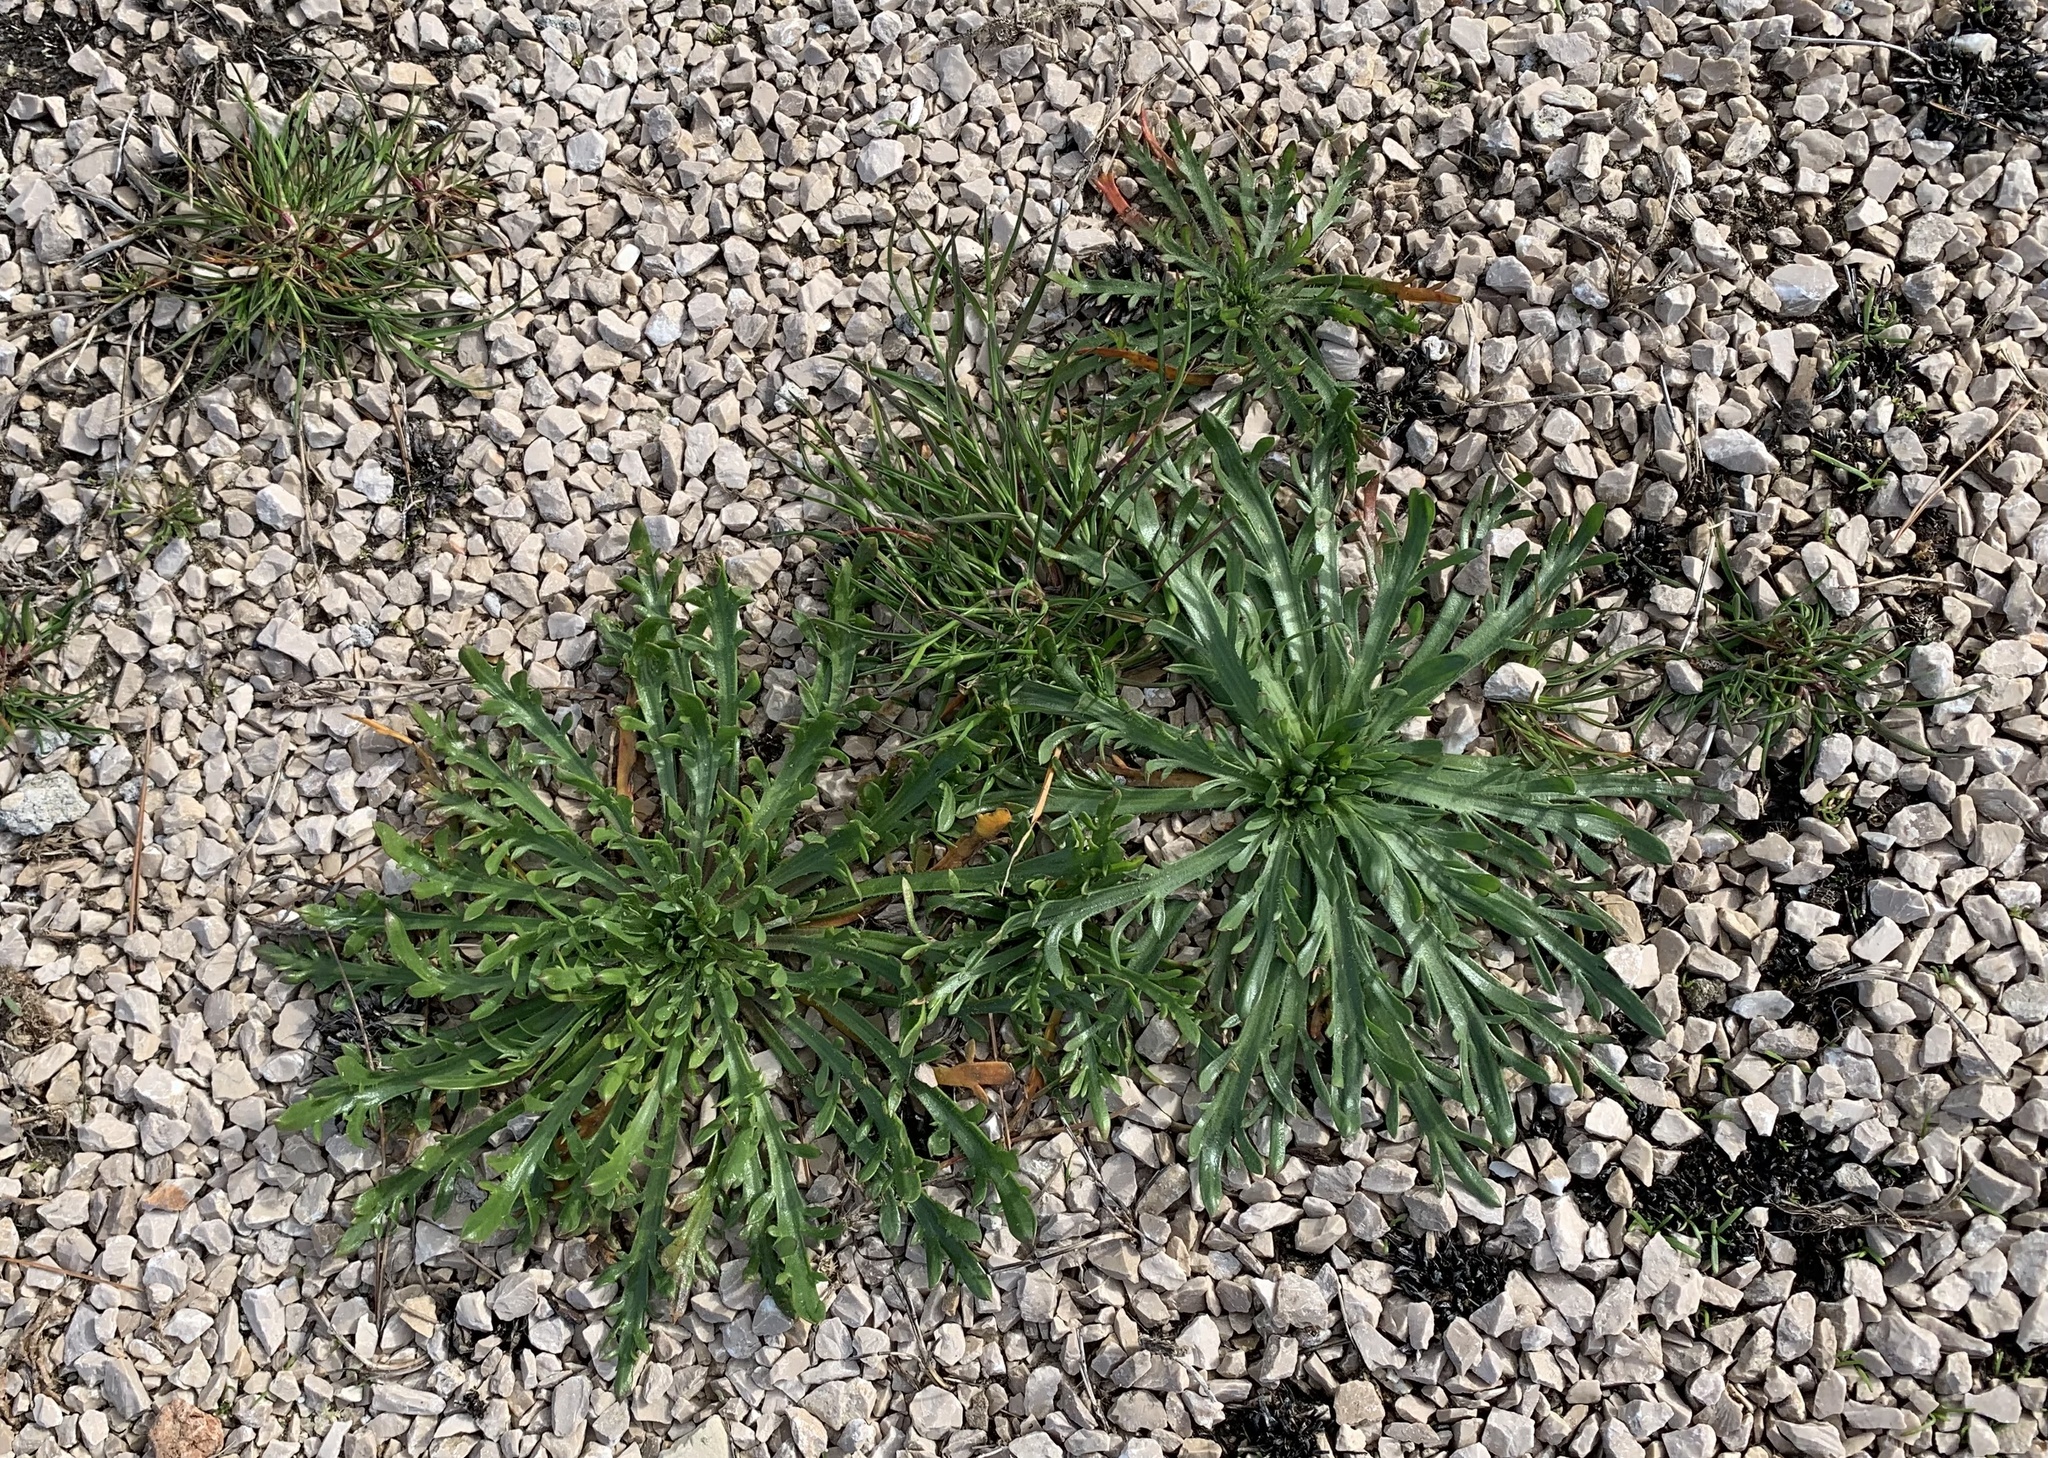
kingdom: Plantae
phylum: Tracheophyta
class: Magnoliopsida
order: Lamiales
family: Plantaginaceae
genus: Plantago
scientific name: Plantago coronopus
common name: Buck's-horn plantain
